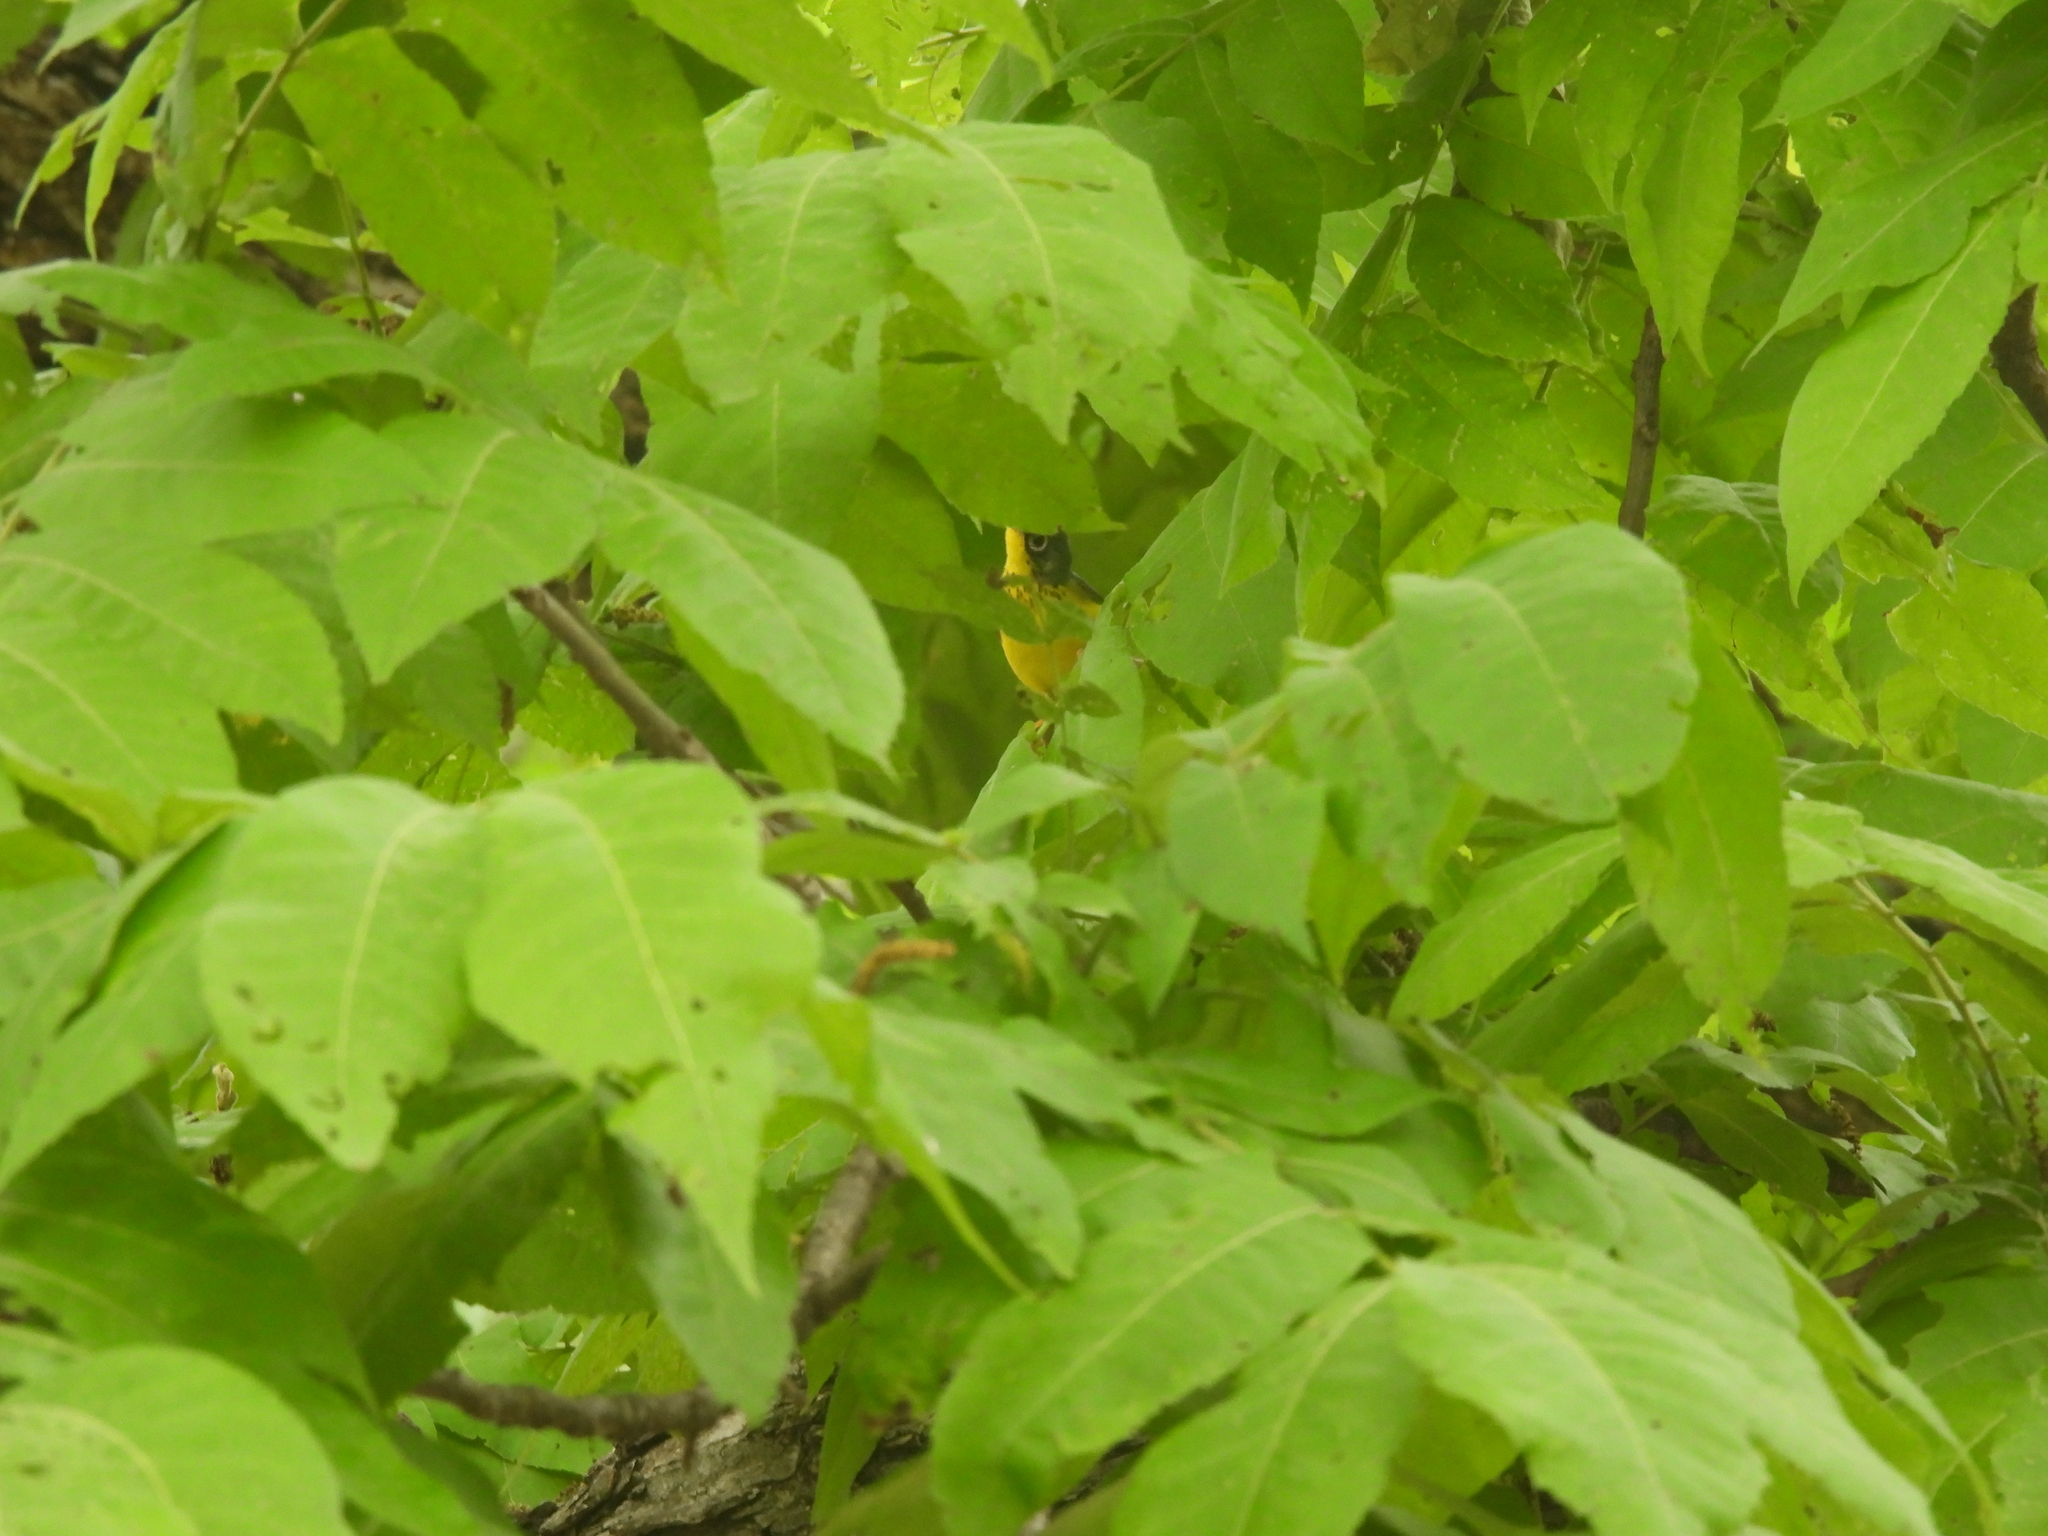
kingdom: Animalia
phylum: Chordata
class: Aves
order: Passeriformes
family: Parulidae
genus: Cardellina
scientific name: Cardellina canadensis
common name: Canada warbler
